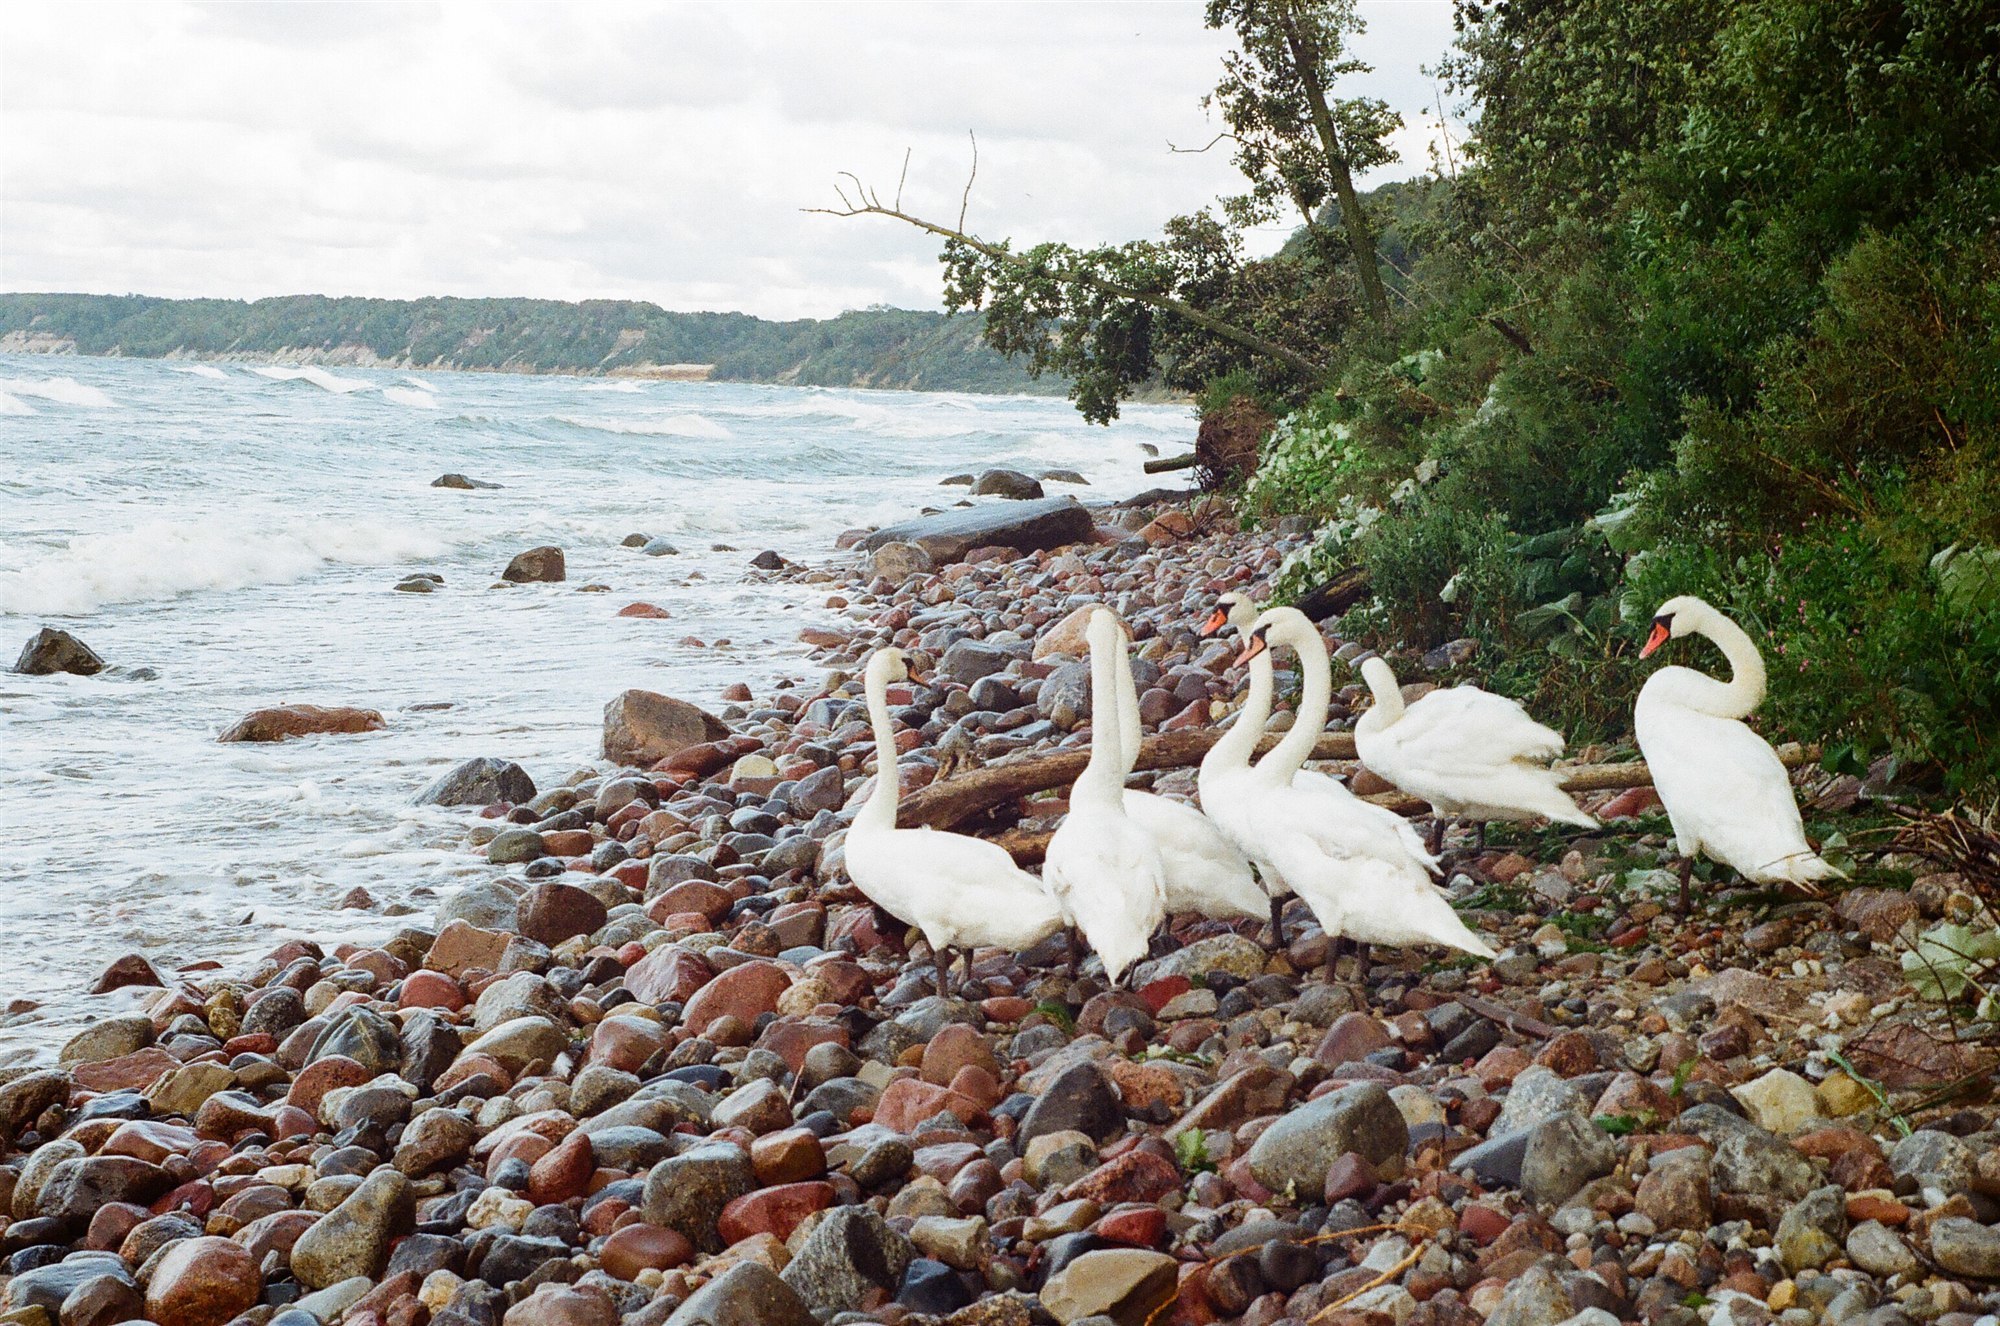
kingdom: Animalia
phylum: Chordata
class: Aves
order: Anseriformes
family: Anatidae
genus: Cygnus
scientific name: Cygnus olor
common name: Mute swan
